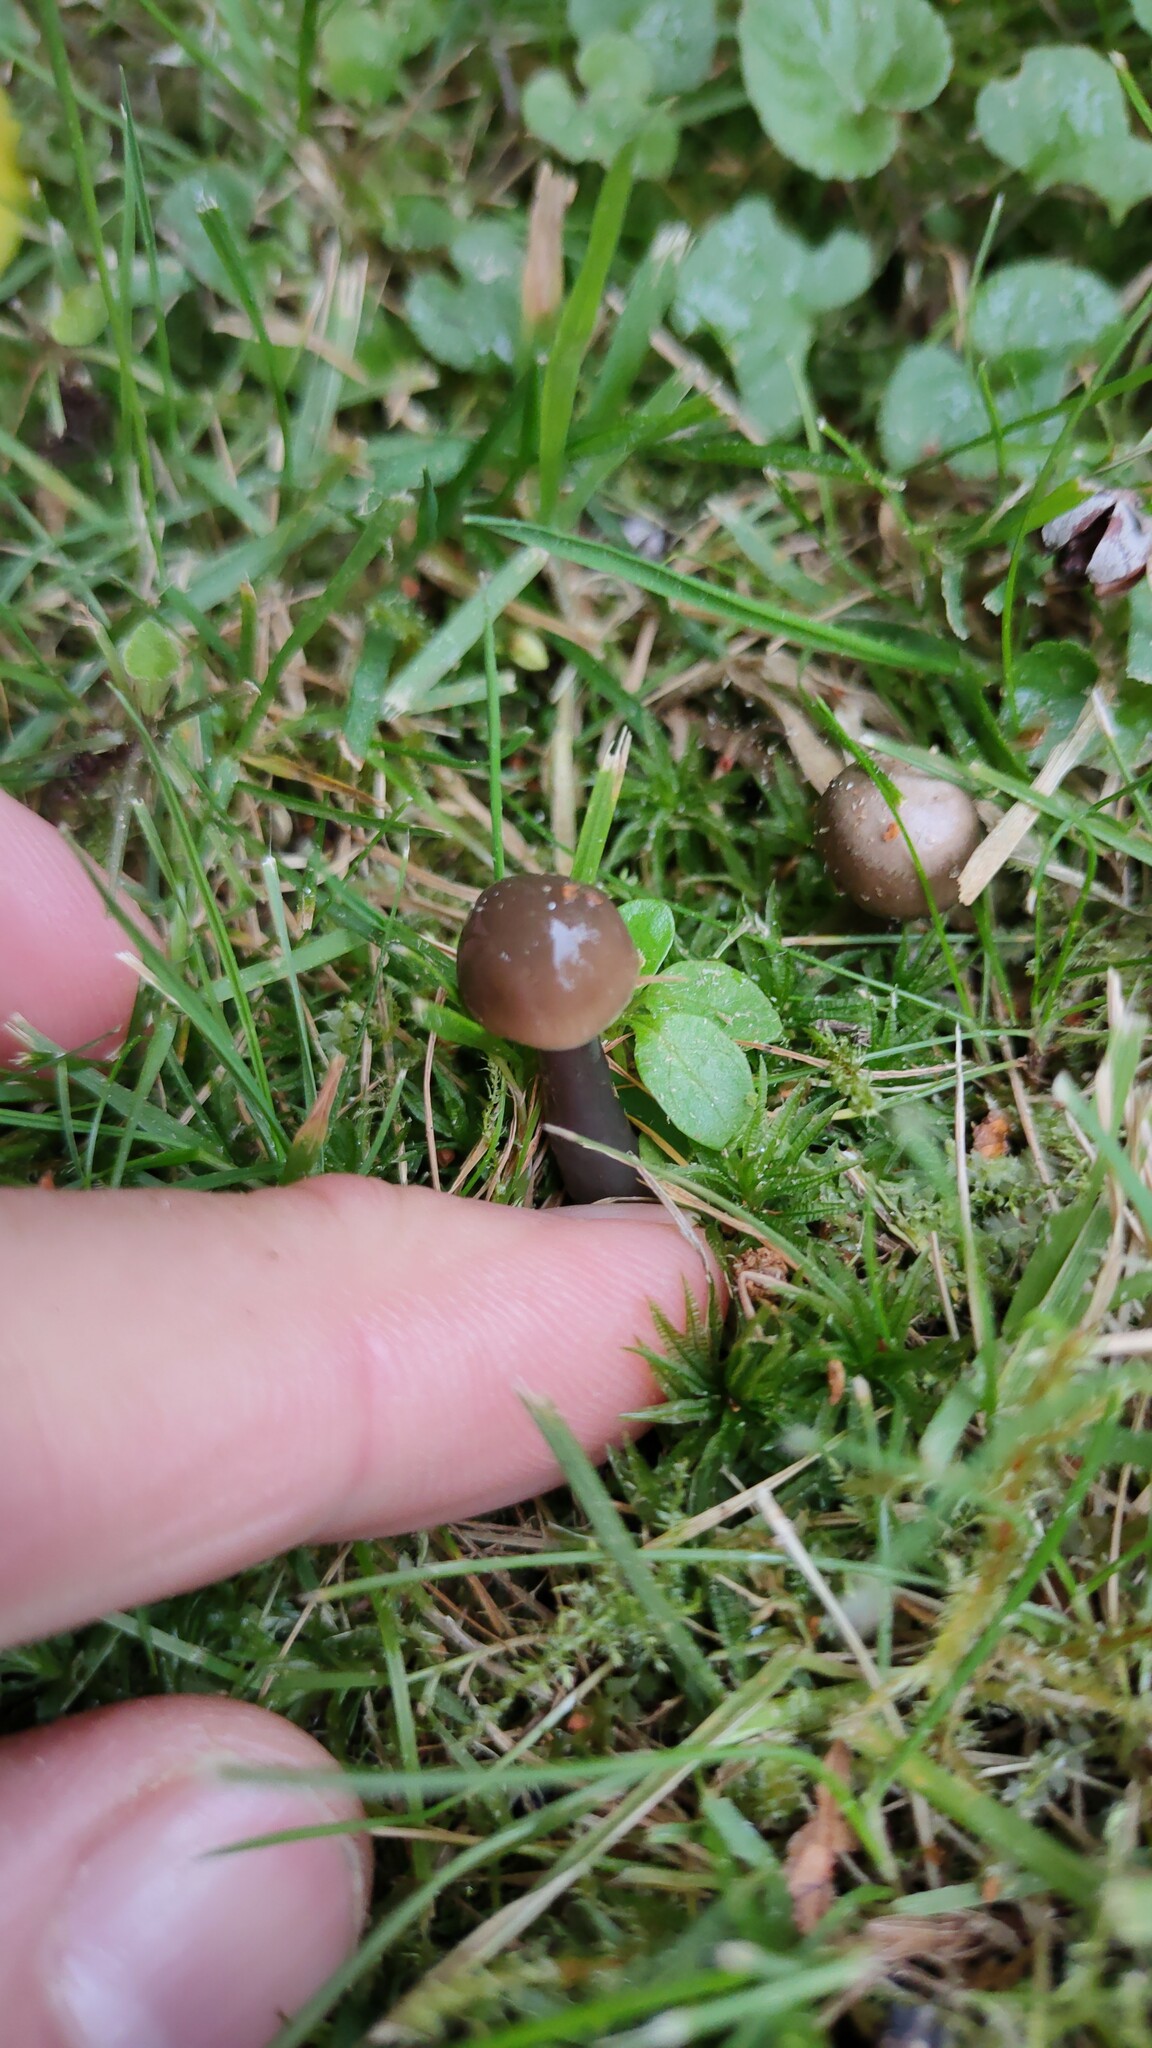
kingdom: Fungi
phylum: Basidiomycota
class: Agaricomycetes
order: Agaricales
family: Hygrophoraceae
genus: Gliophorus
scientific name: Gliophorus irrigatus
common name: Slimy waxcap
